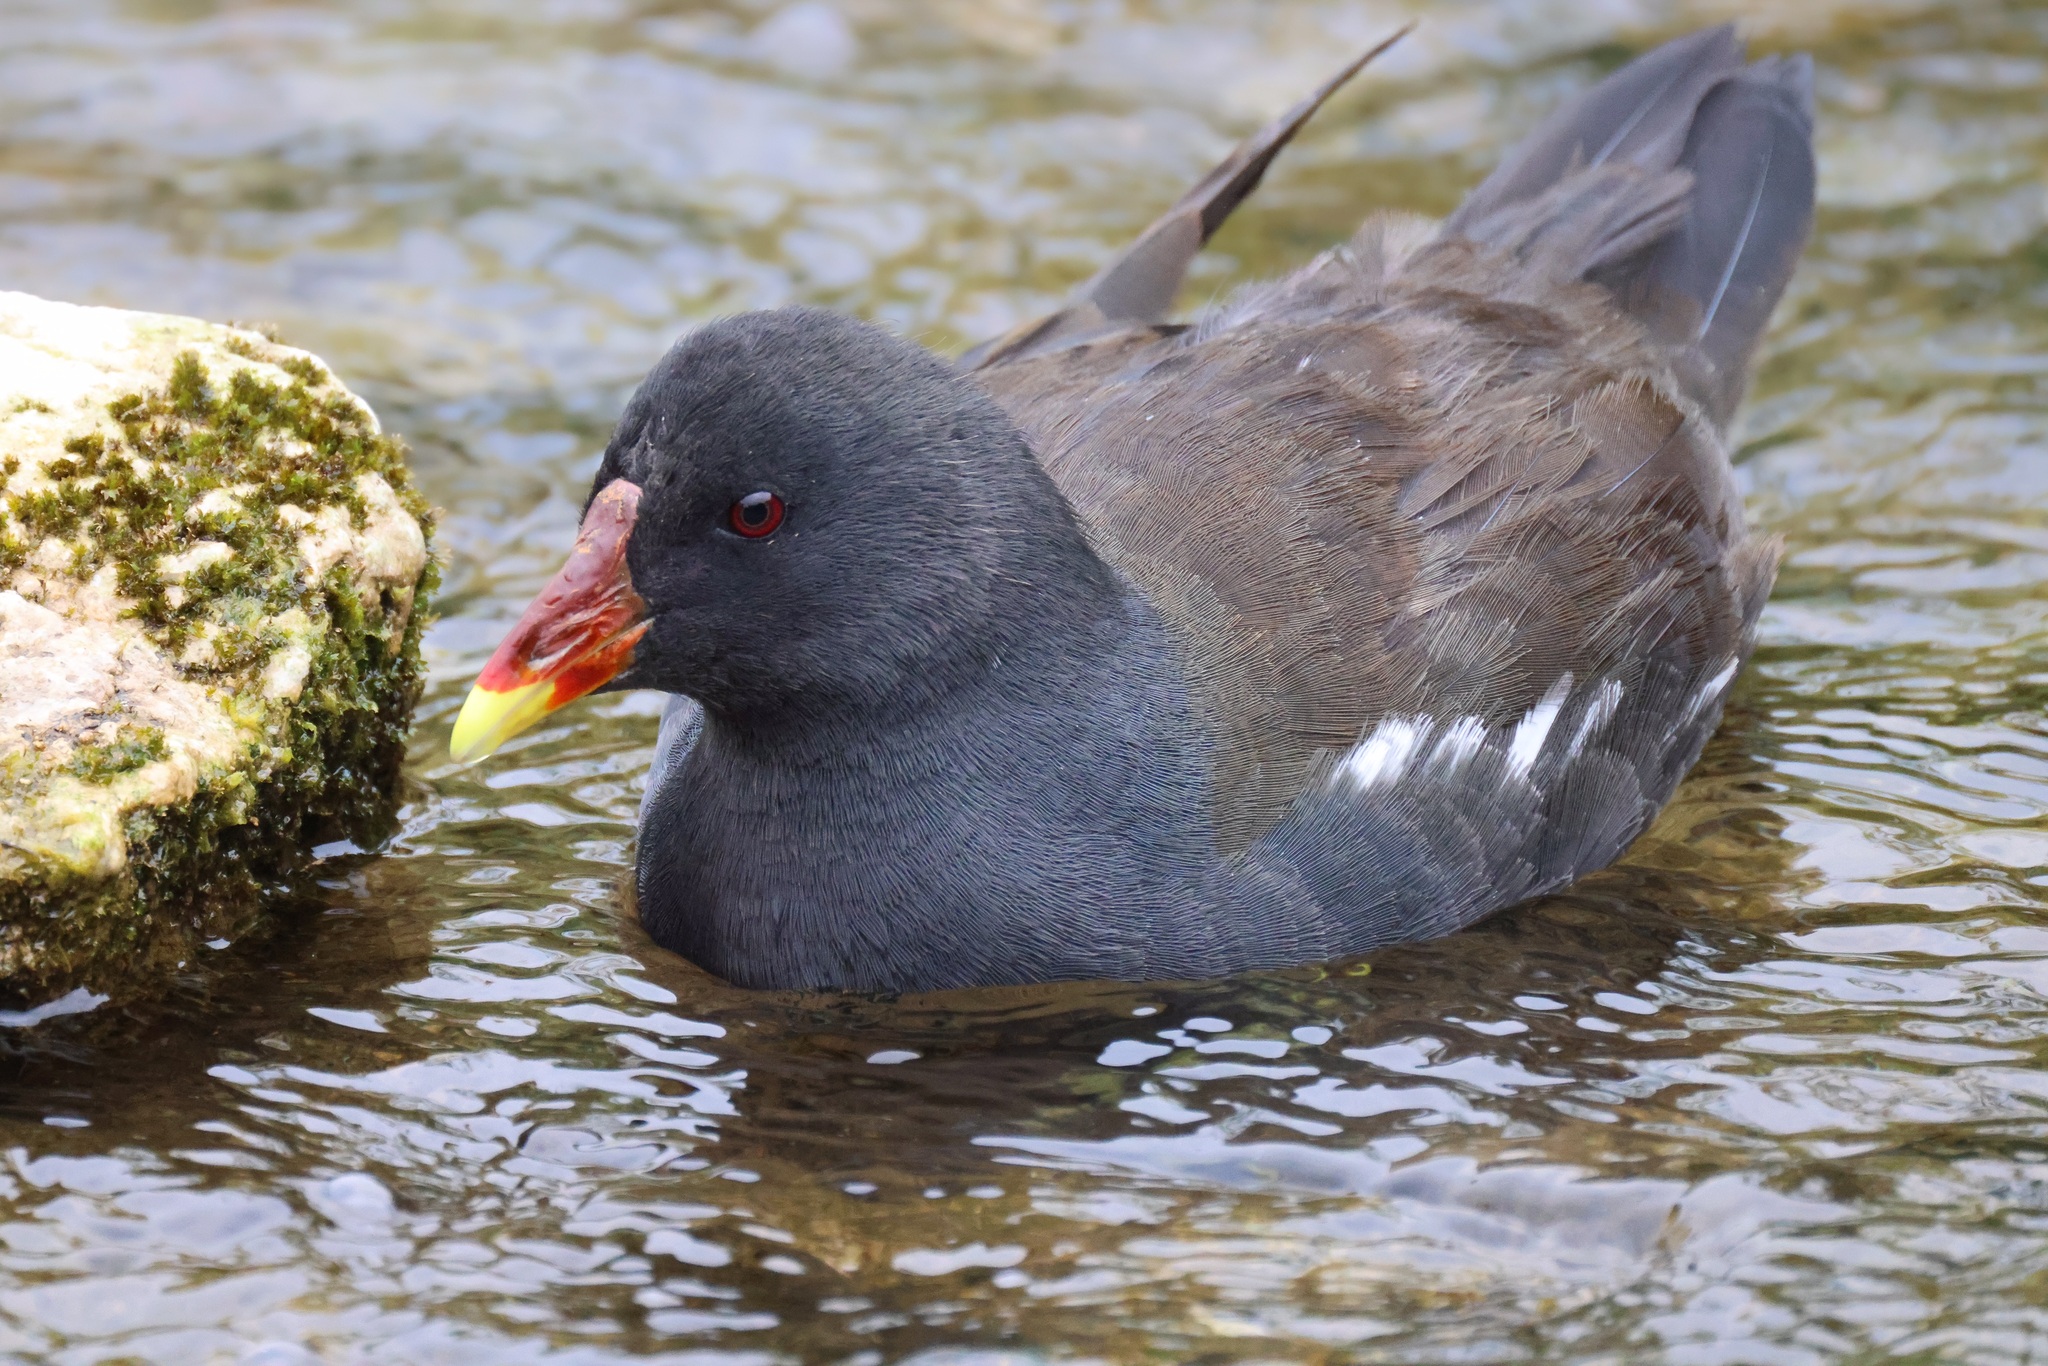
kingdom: Animalia
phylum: Chordata
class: Aves
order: Gruiformes
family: Rallidae
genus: Gallinula
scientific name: Gallinula chloropus
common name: Common moorhen
